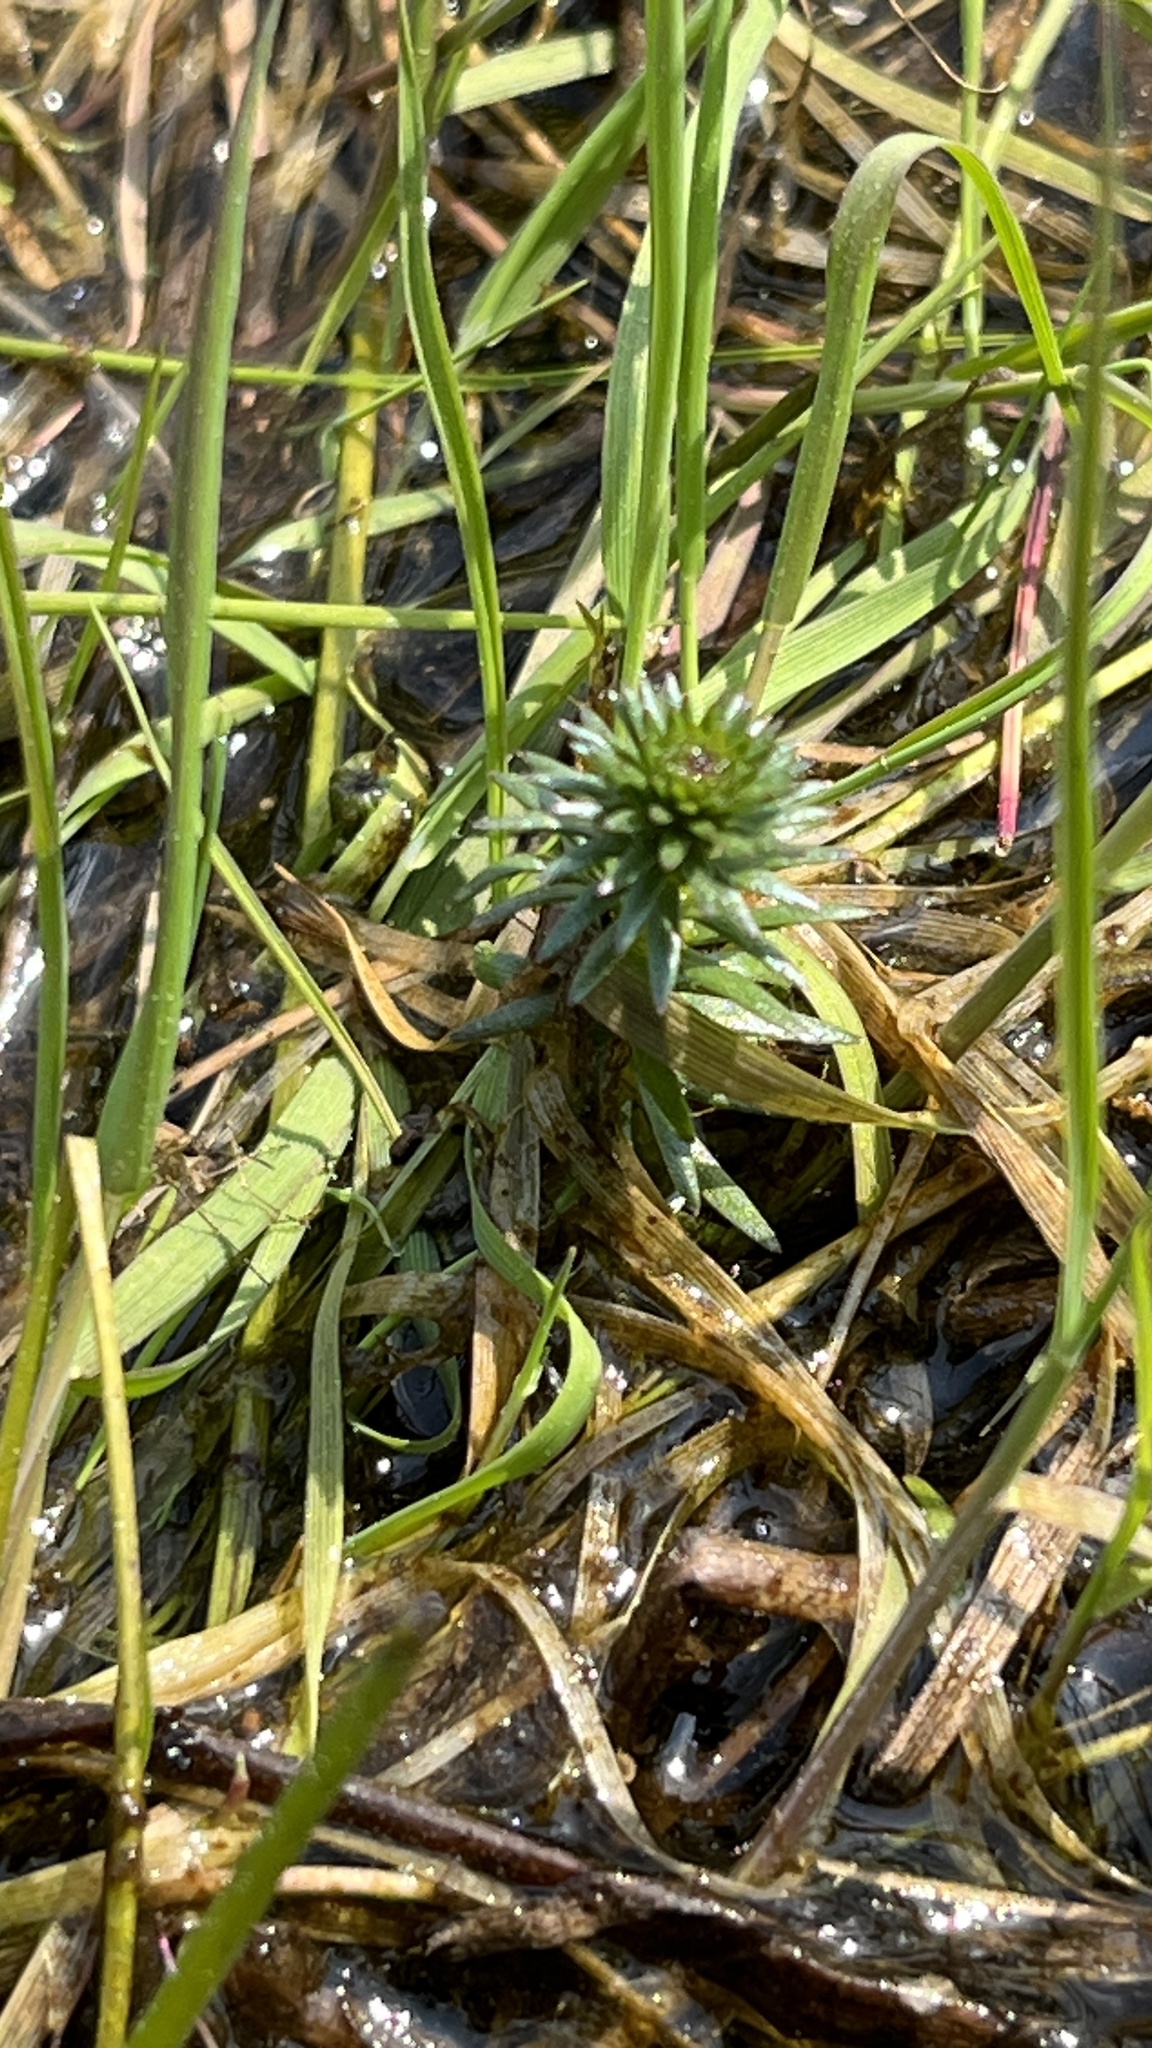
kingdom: Plantae
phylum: Tracheophyta
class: Magnoliopsida
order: Lamiales
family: Plantaginaceae
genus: Hippuris
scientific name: Hippuris vulgaris
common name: Mare's-tail
